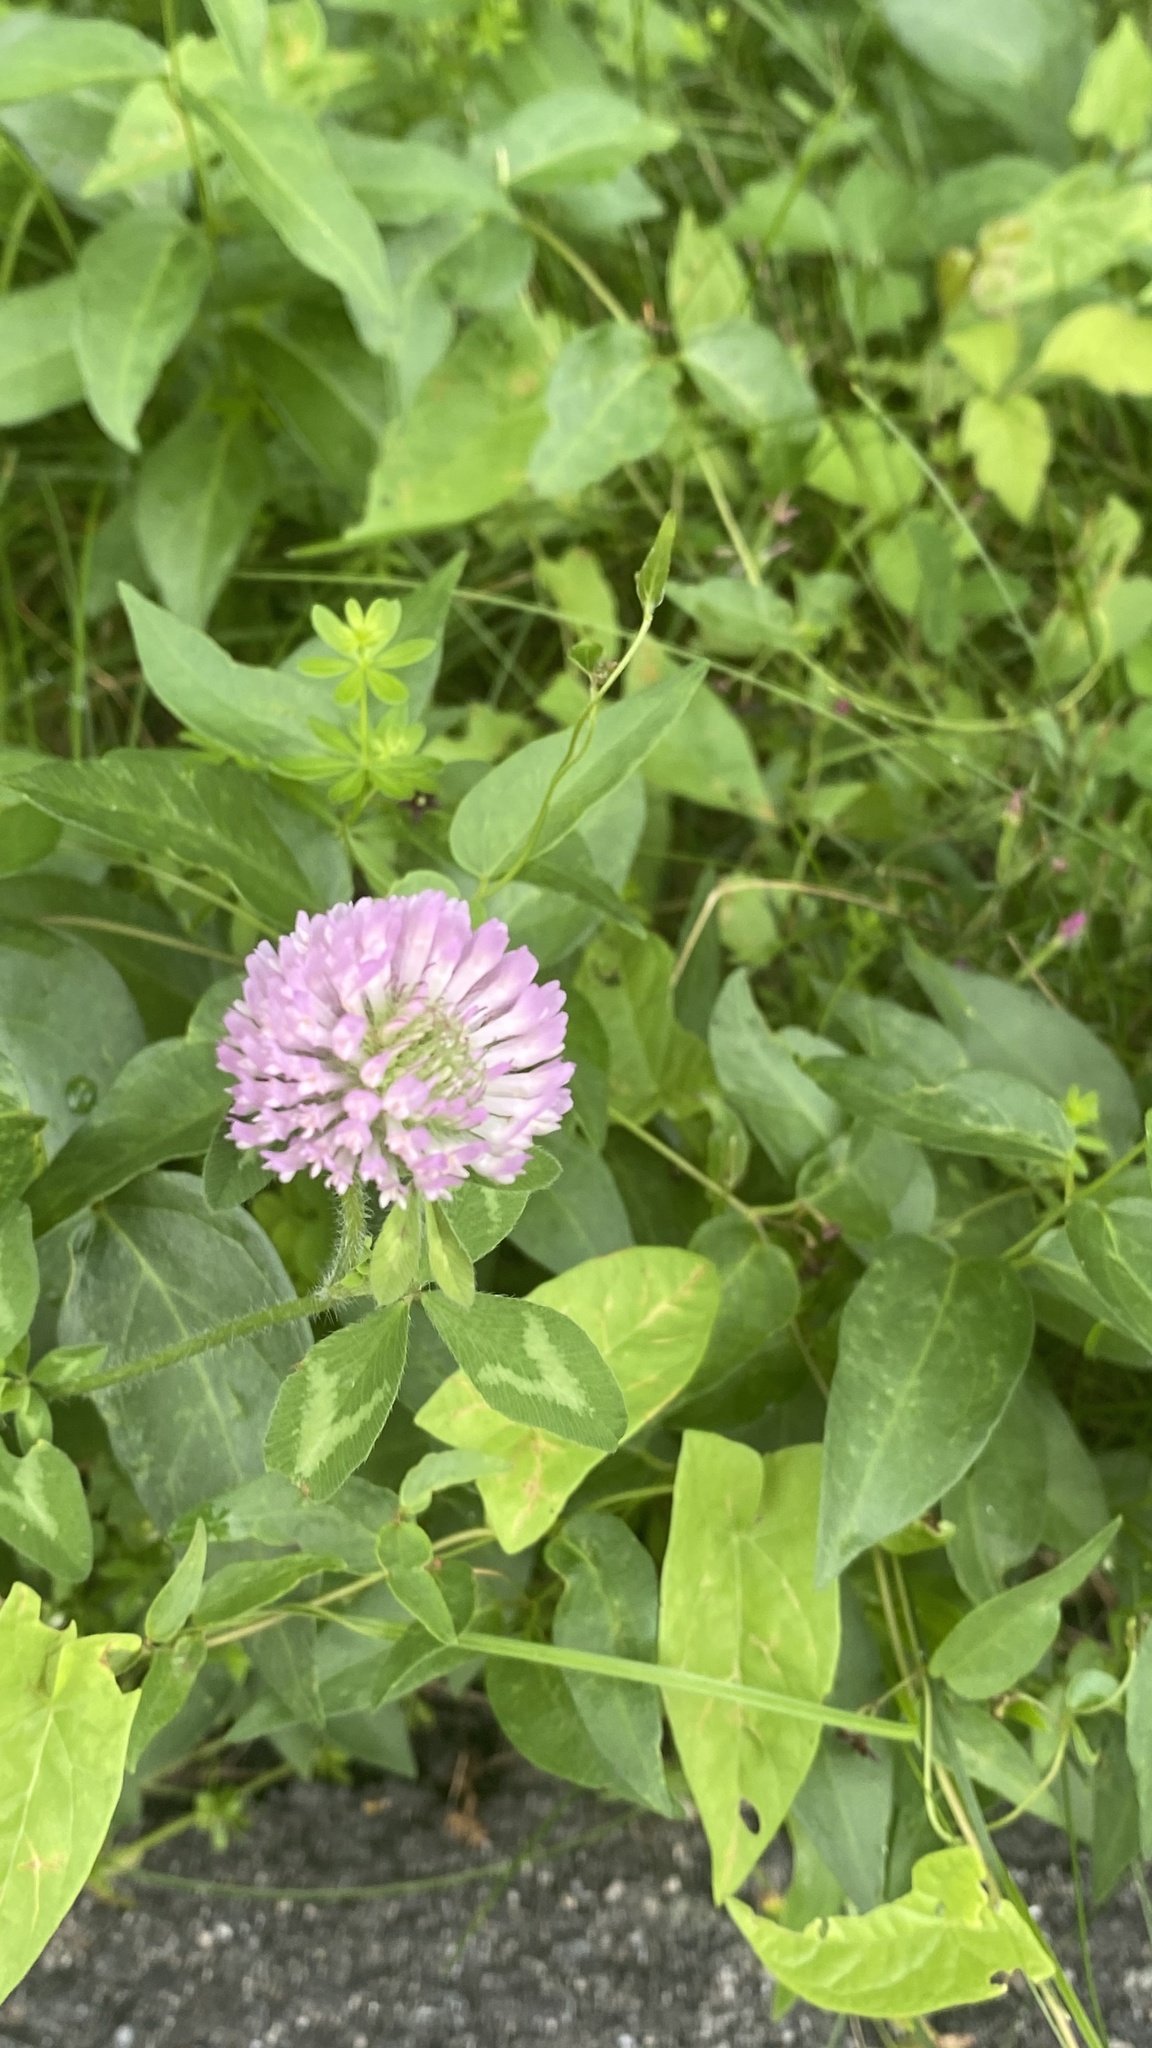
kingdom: Plantae
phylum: Tracheophyta
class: Magnoliopsida
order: Fabales
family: Fabaceae
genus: Trifolium
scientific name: Trifolium pratense
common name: Red clover
